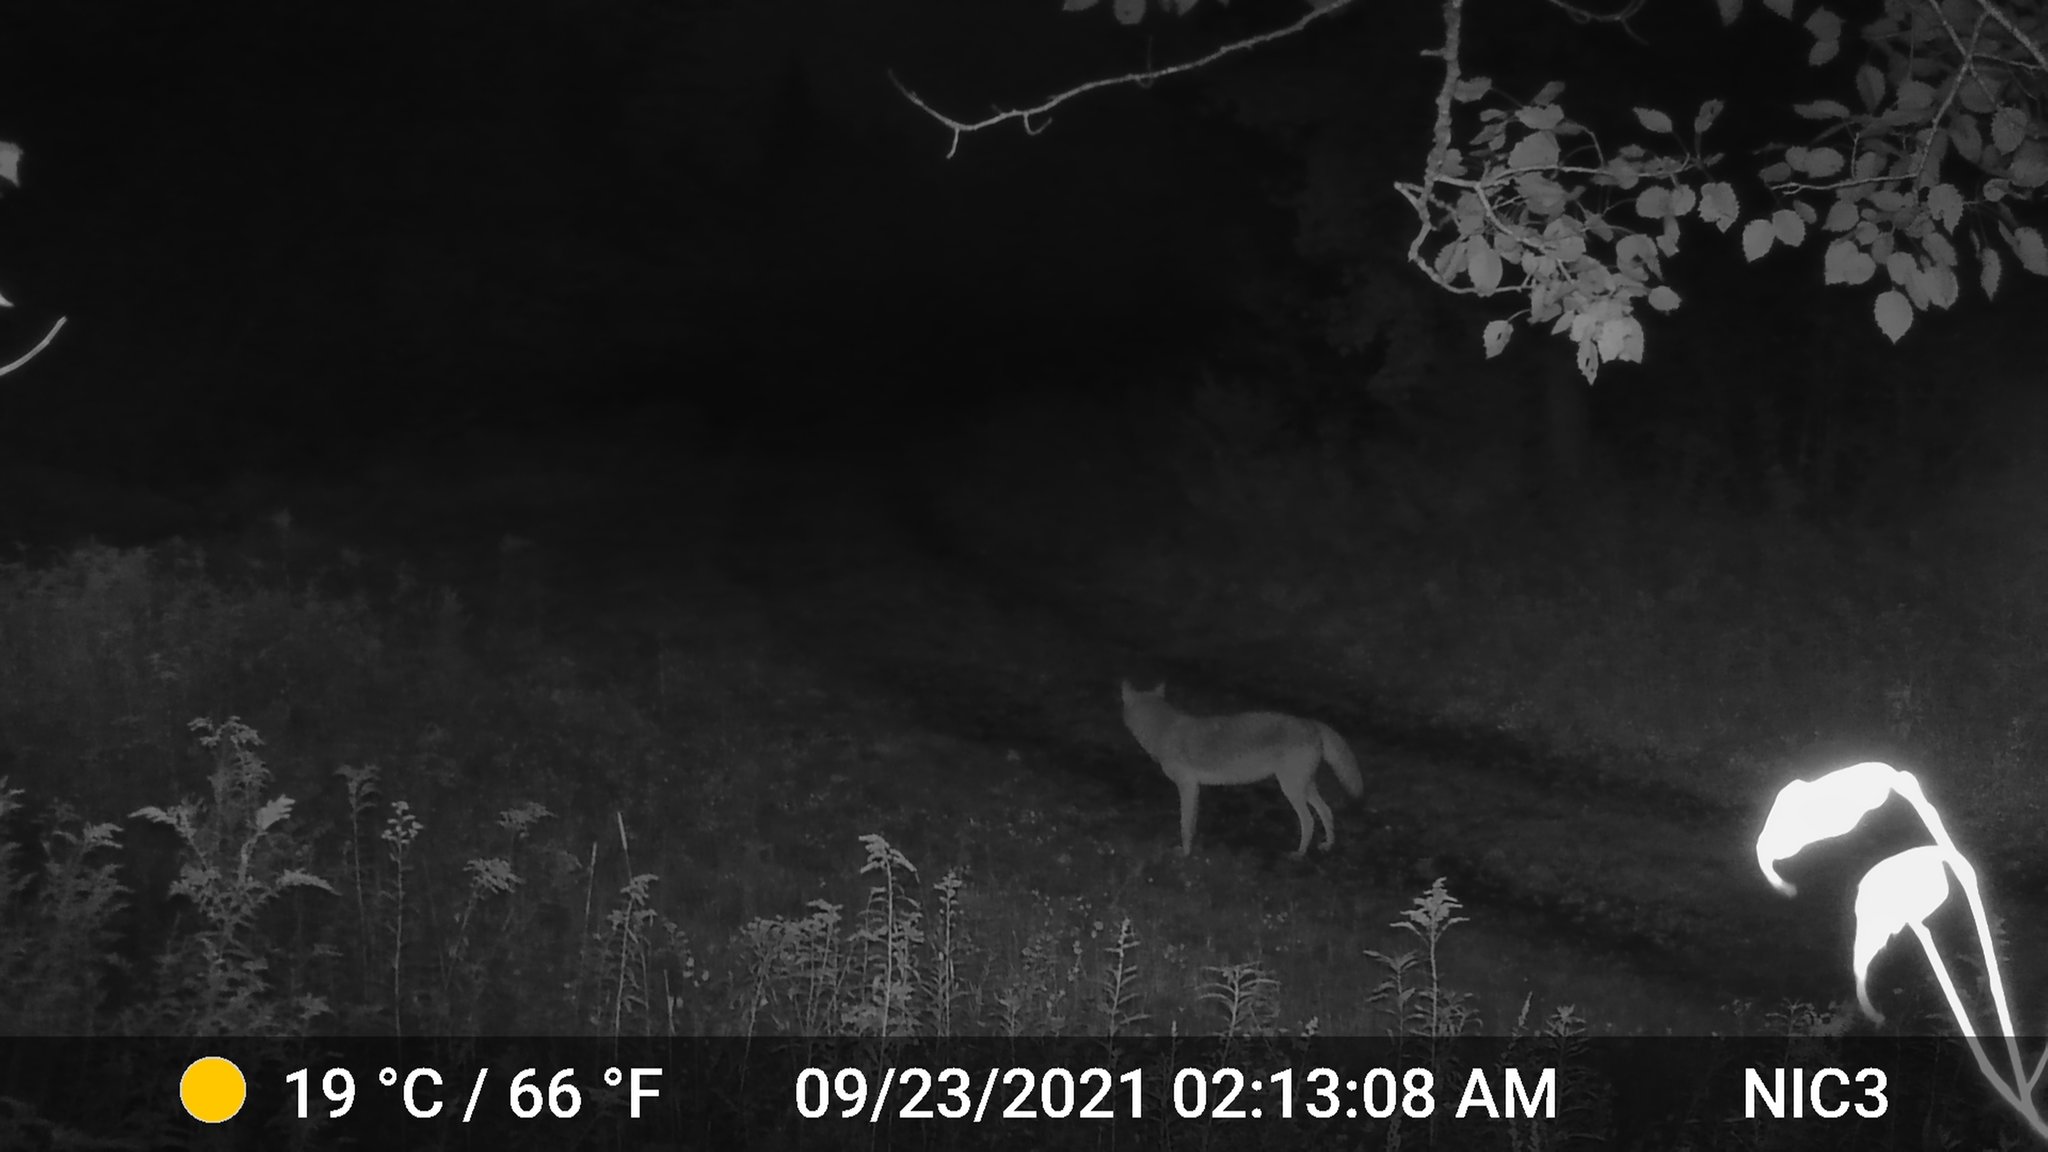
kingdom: Animalia
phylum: Chordata
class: Mammalia
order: Carnivora
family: Canidae
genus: Canis
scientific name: Canis latrans
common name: Coyote
